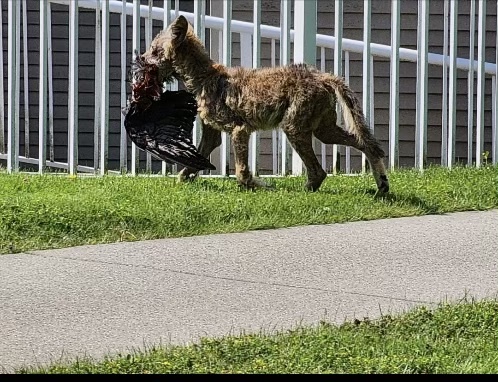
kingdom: Animalia
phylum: Chordata
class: Mammalia
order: Carnivora
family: Canidae
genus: Canis
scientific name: Canis latrans
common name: Coyote
